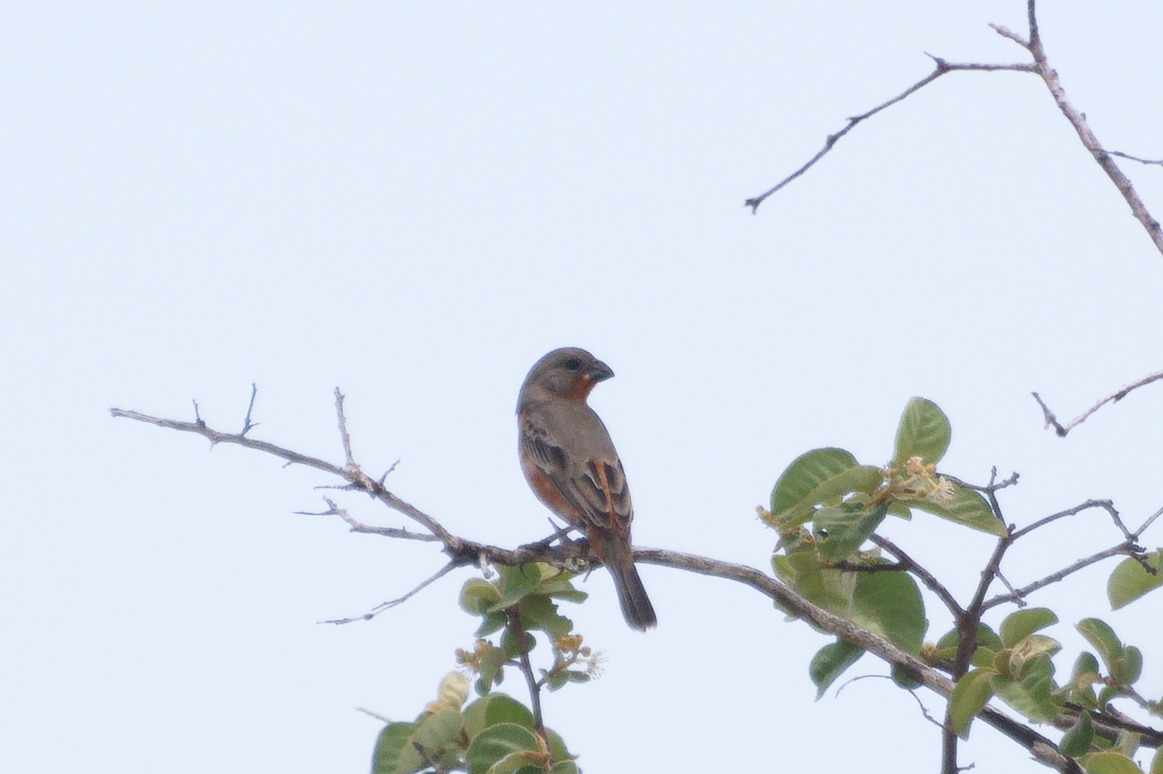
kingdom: Animalia
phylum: Chordata
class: Aves
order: Passeriformes
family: Thraupidae
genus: Sporophila
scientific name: Sporophila minuta
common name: Ruddy-breasted seedeater
